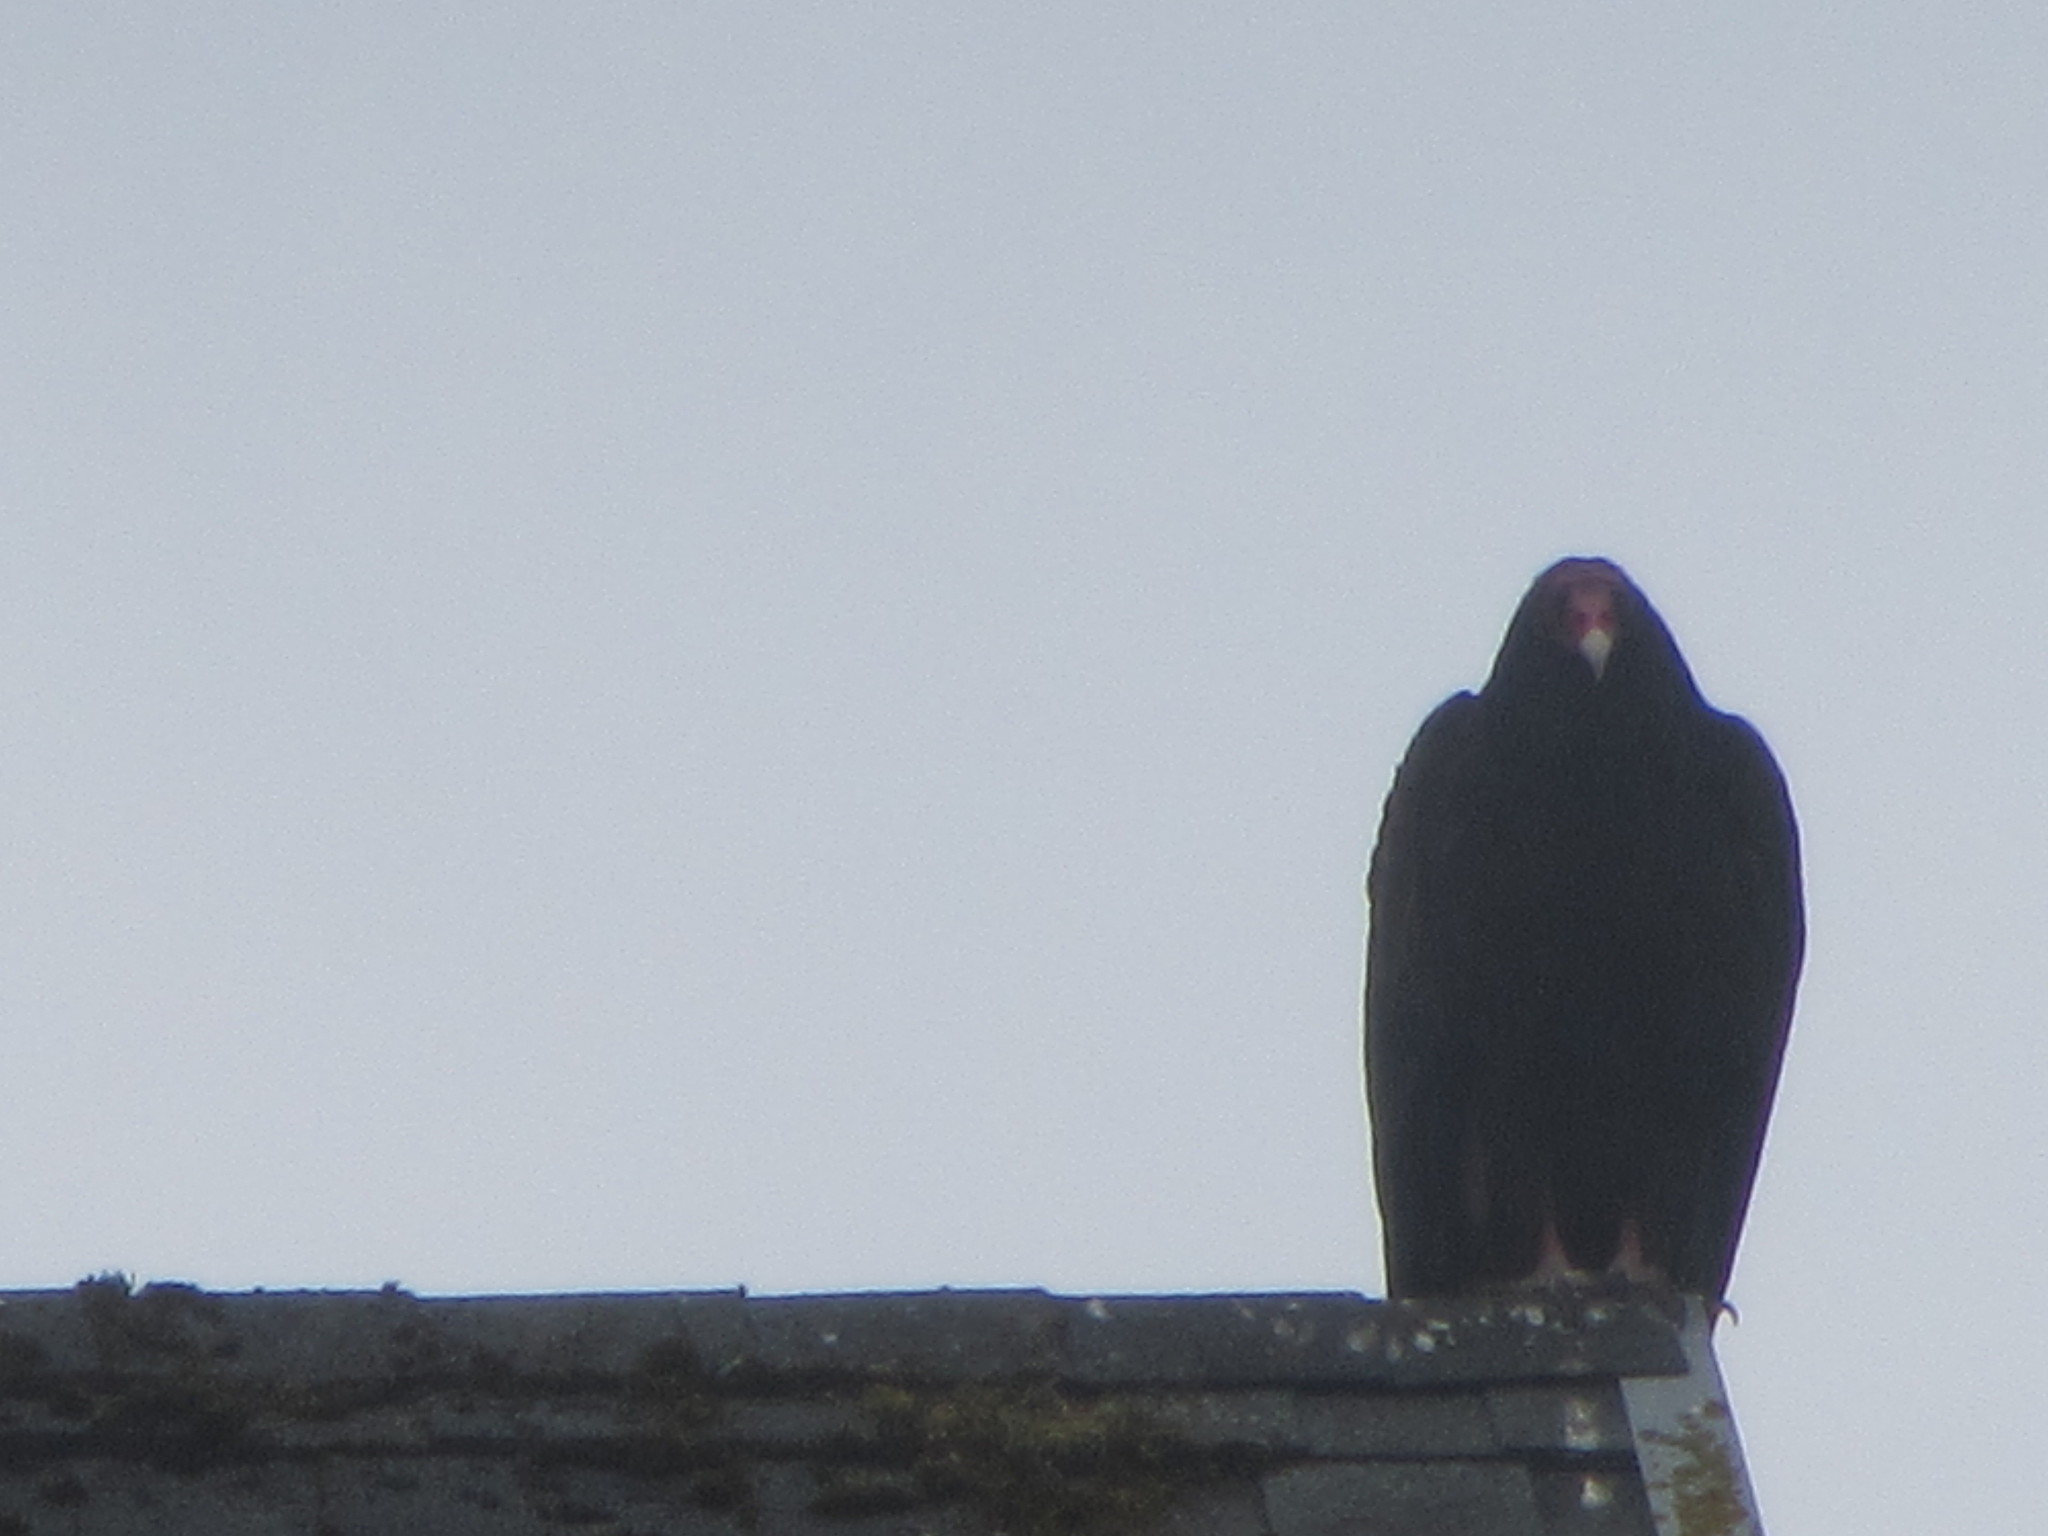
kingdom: Animalia
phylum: Chordata
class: Aves
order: Accipitriformes
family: Cathartidae
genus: Cathartes
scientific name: Cathartes aura
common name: Turkey vulture
